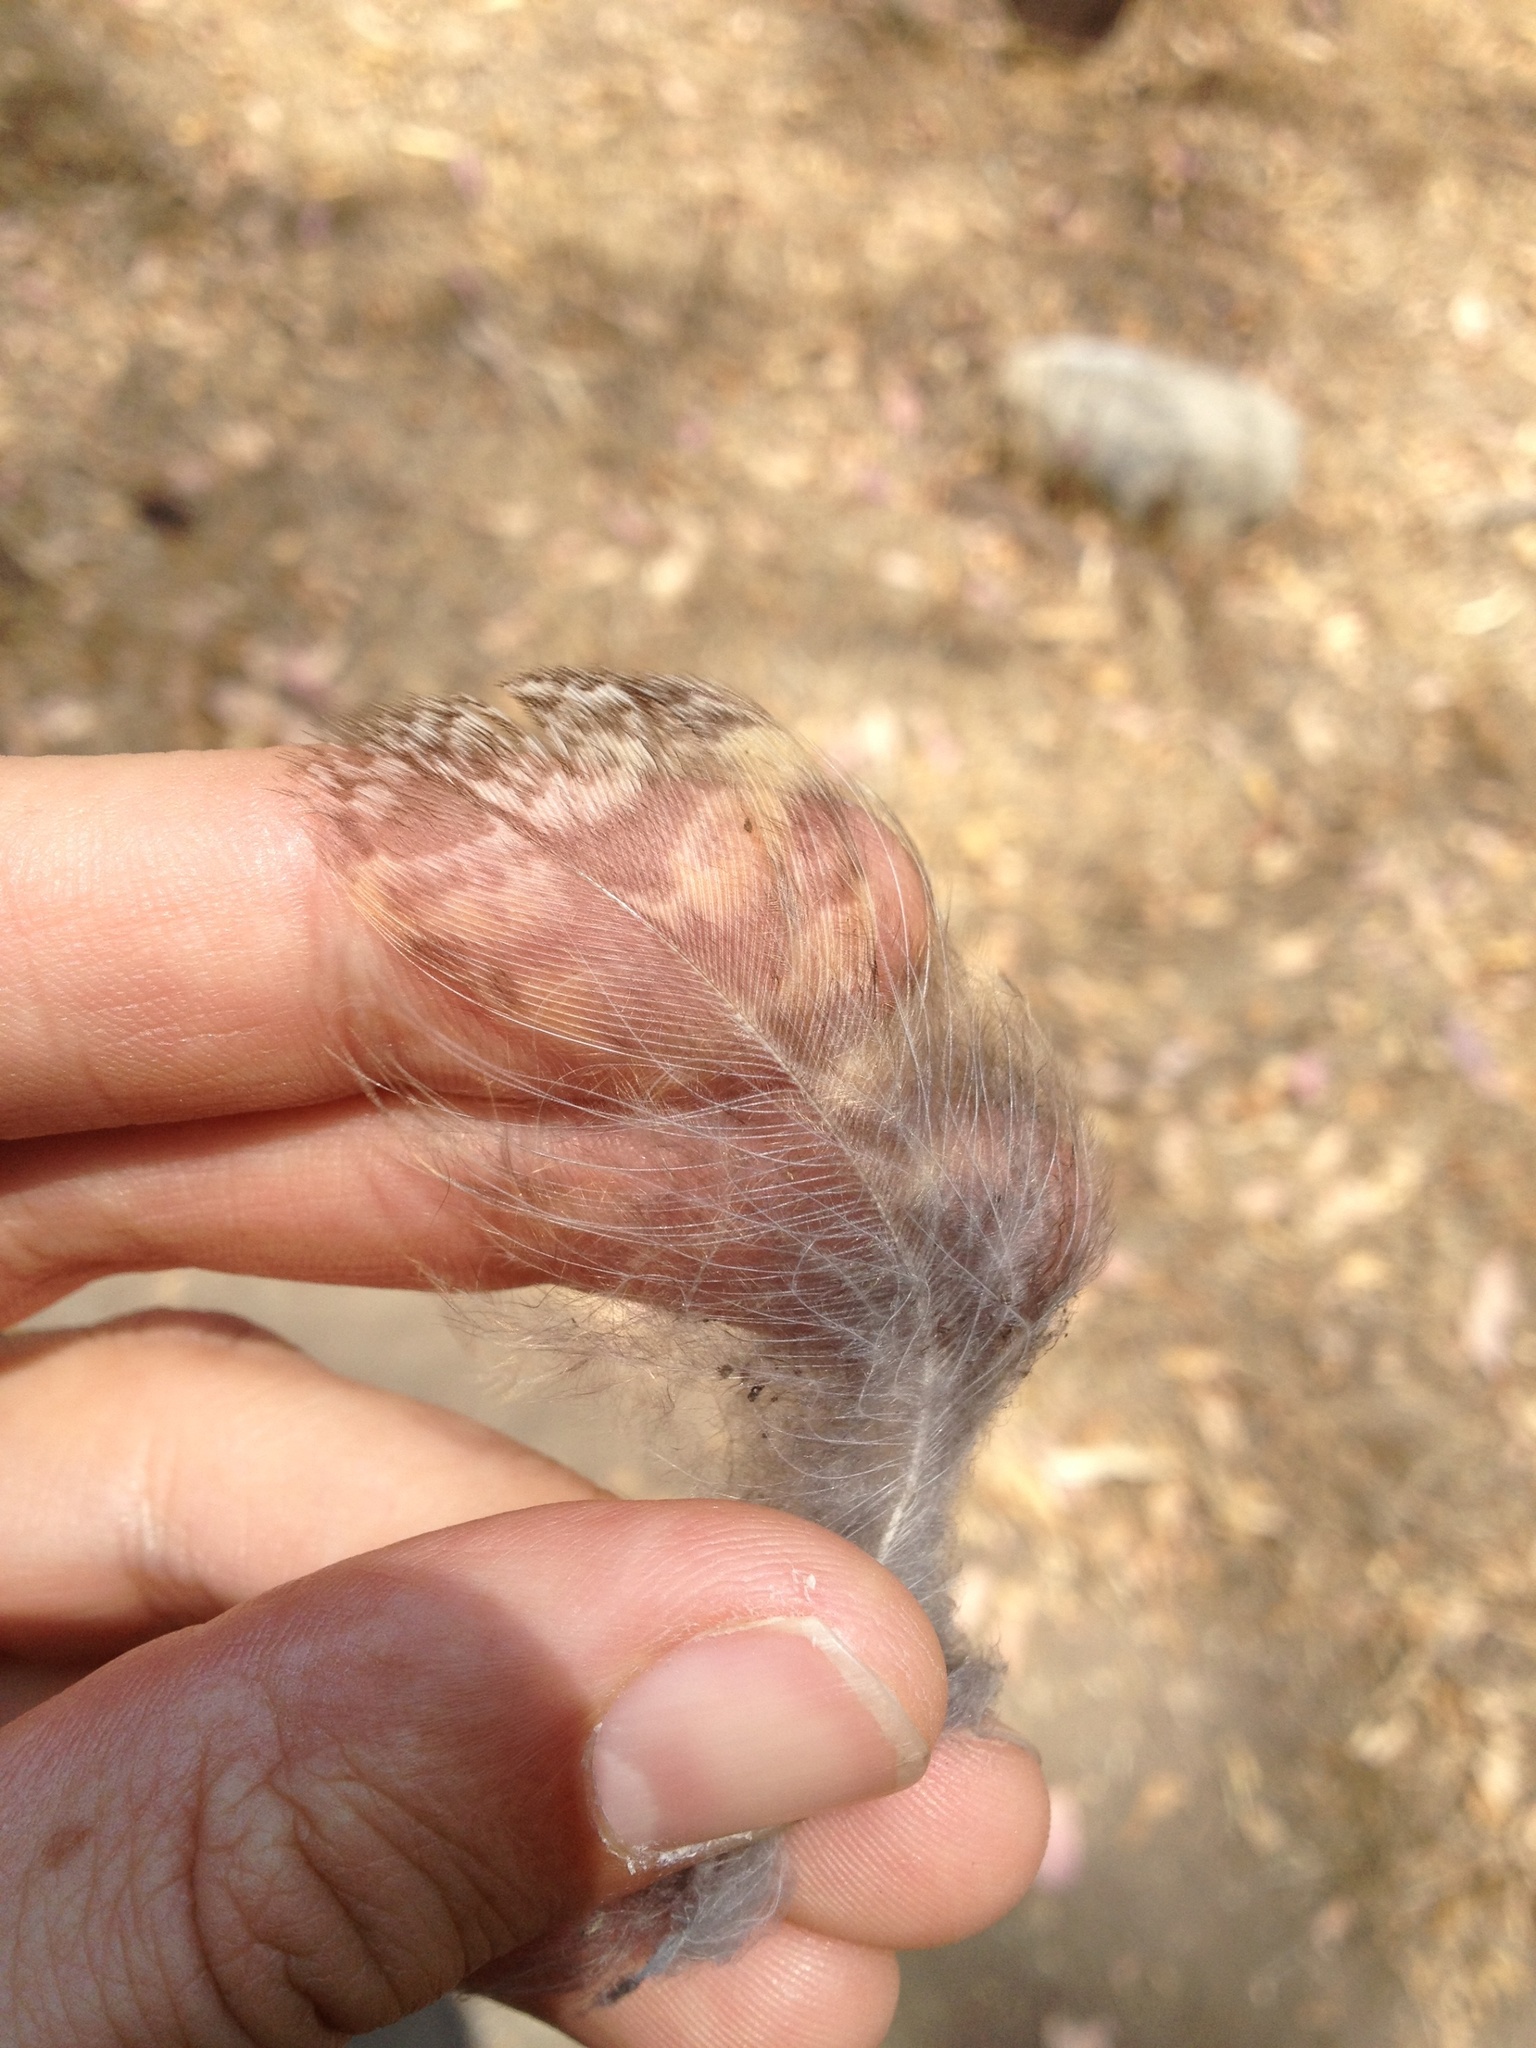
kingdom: Animalia
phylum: Chordata
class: Aves
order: Strigiformes
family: Strigidae
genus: Bubo
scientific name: Bubo virginianus
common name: Great horned owl
